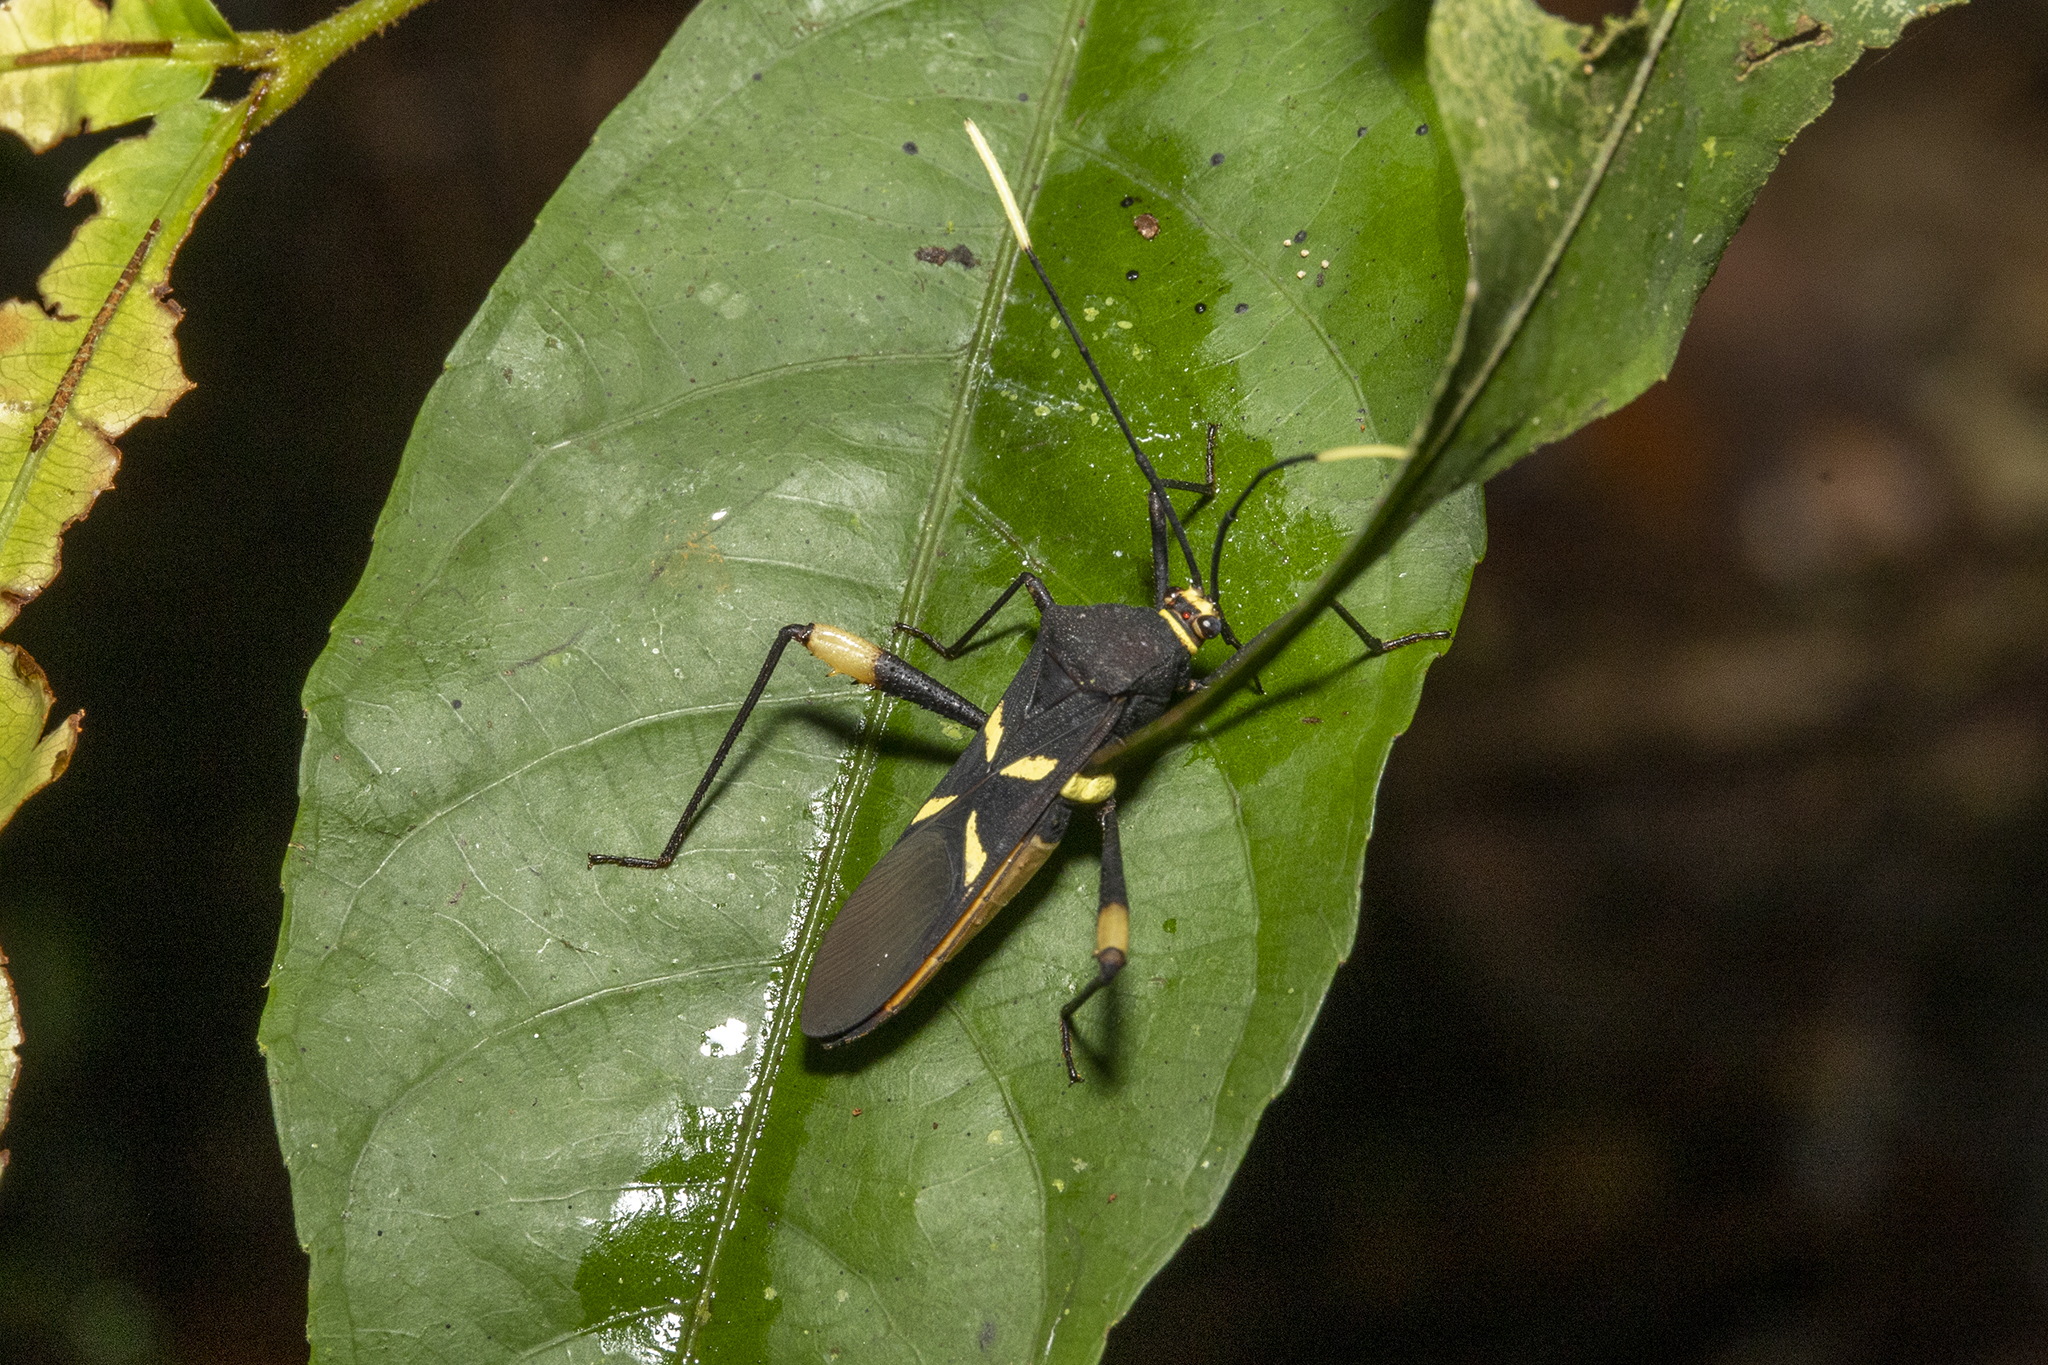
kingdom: Animalia
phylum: Arthropoda
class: Insecta
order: Hemiptera
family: Coreidae
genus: Moronopelios
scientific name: Moronopelios vespiformis
